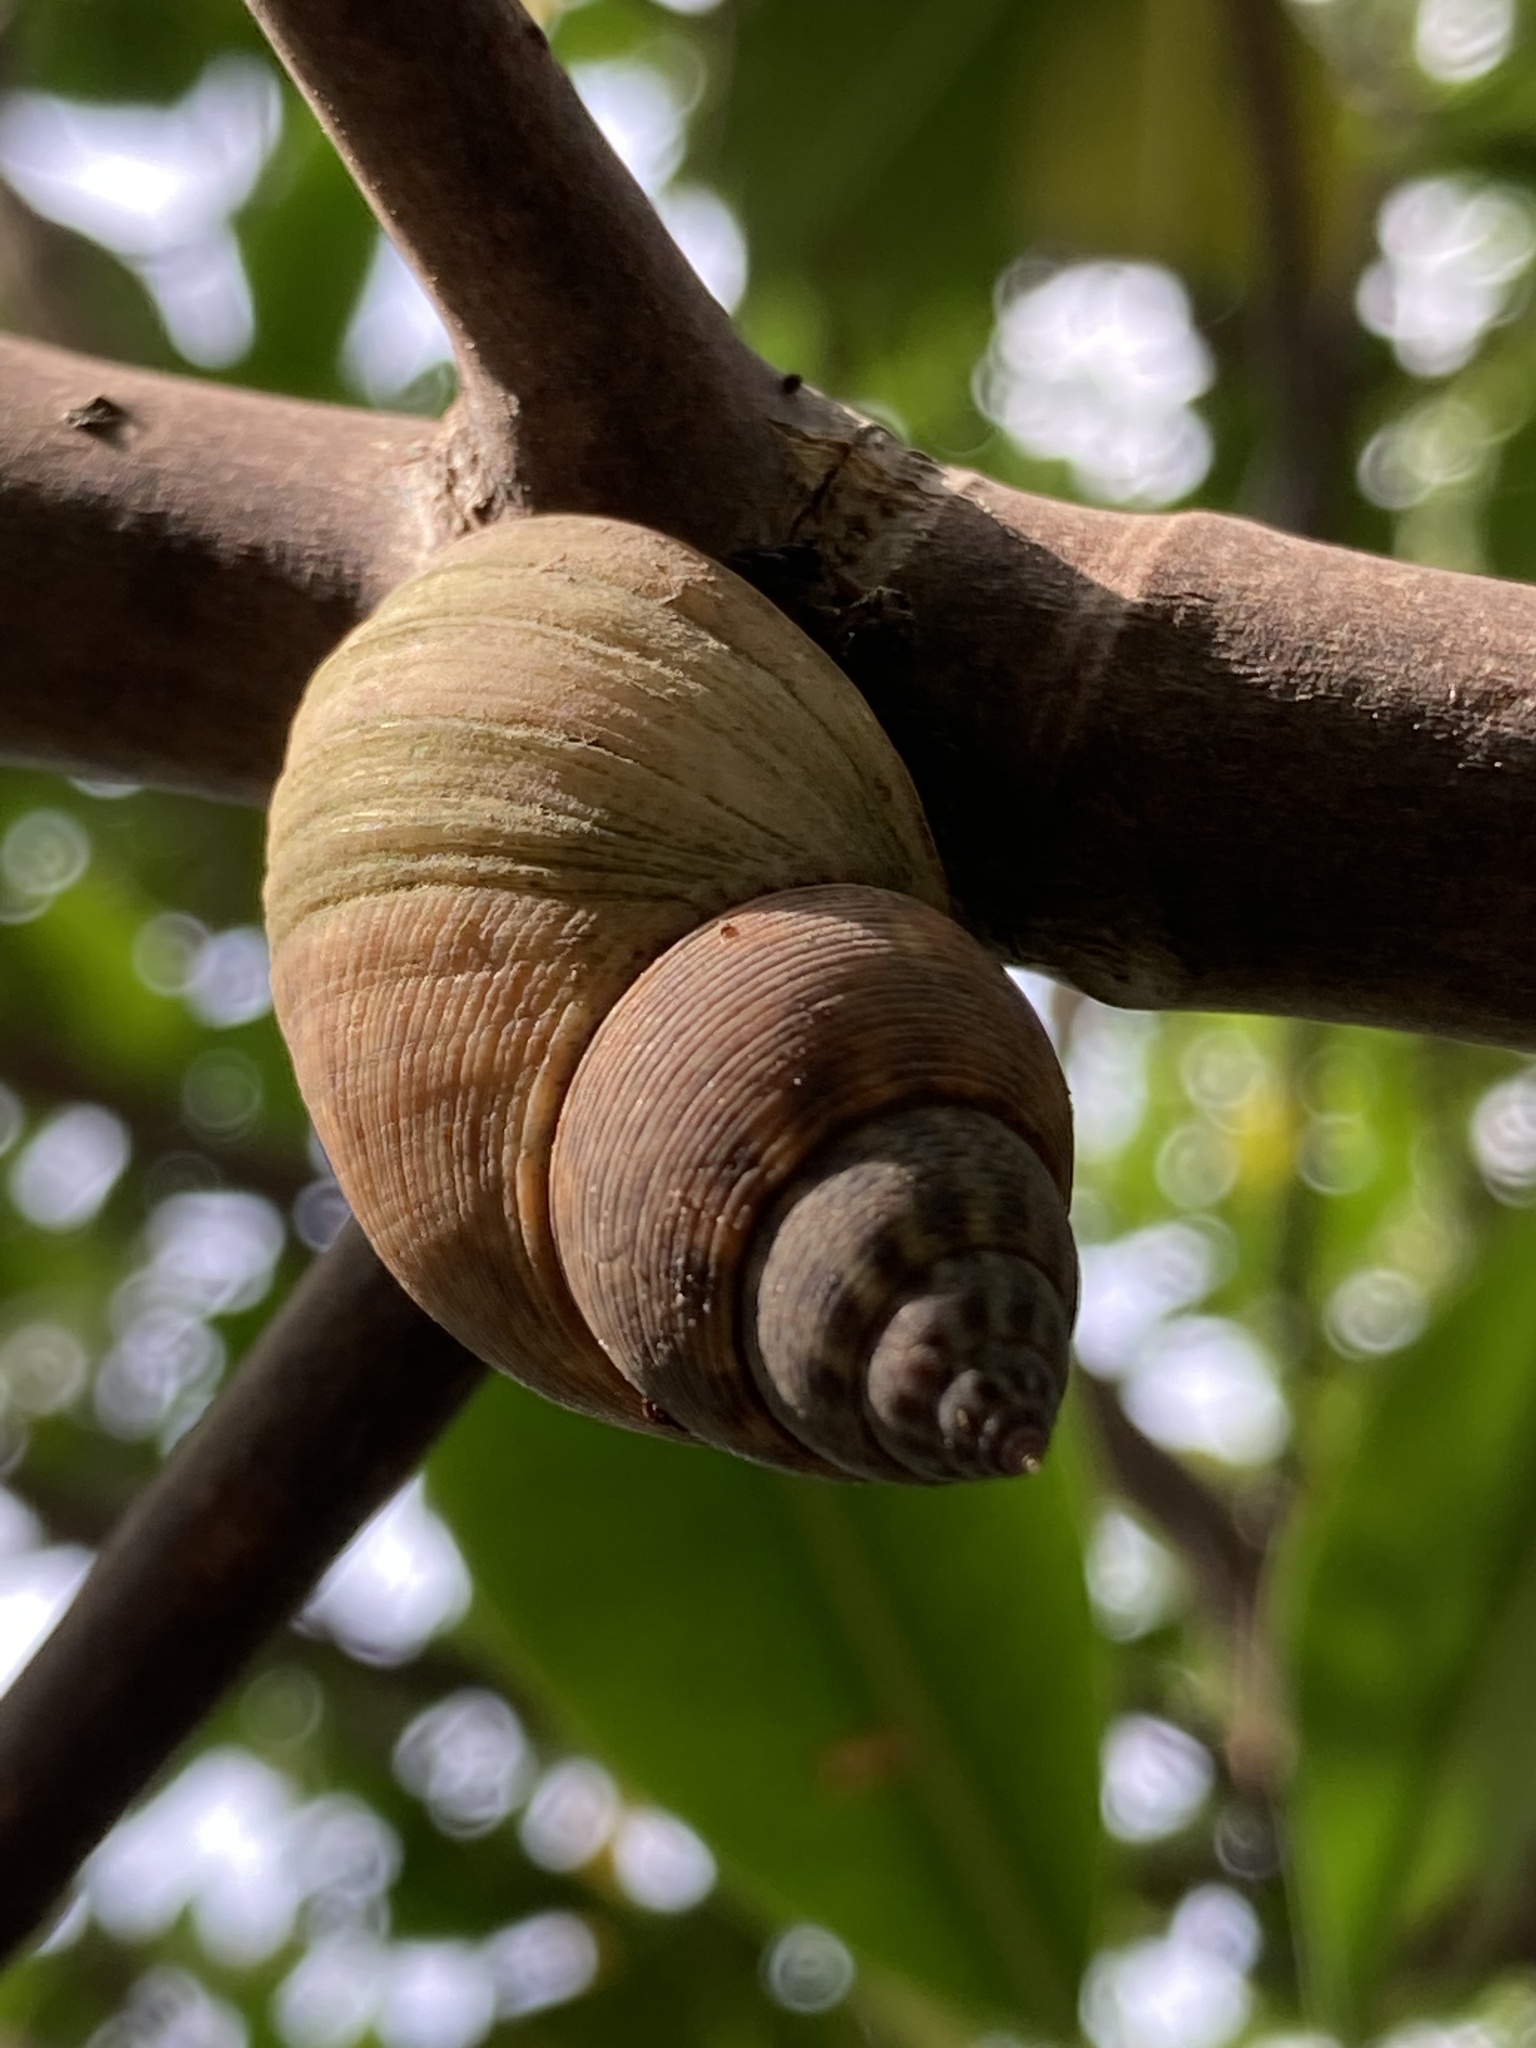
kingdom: Animalia
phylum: Mollusca
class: Gastropoda
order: Littorinimorpha
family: Littorinidae
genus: Littoraria
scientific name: Littoraria angulifera
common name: Mangrove periwinkle
